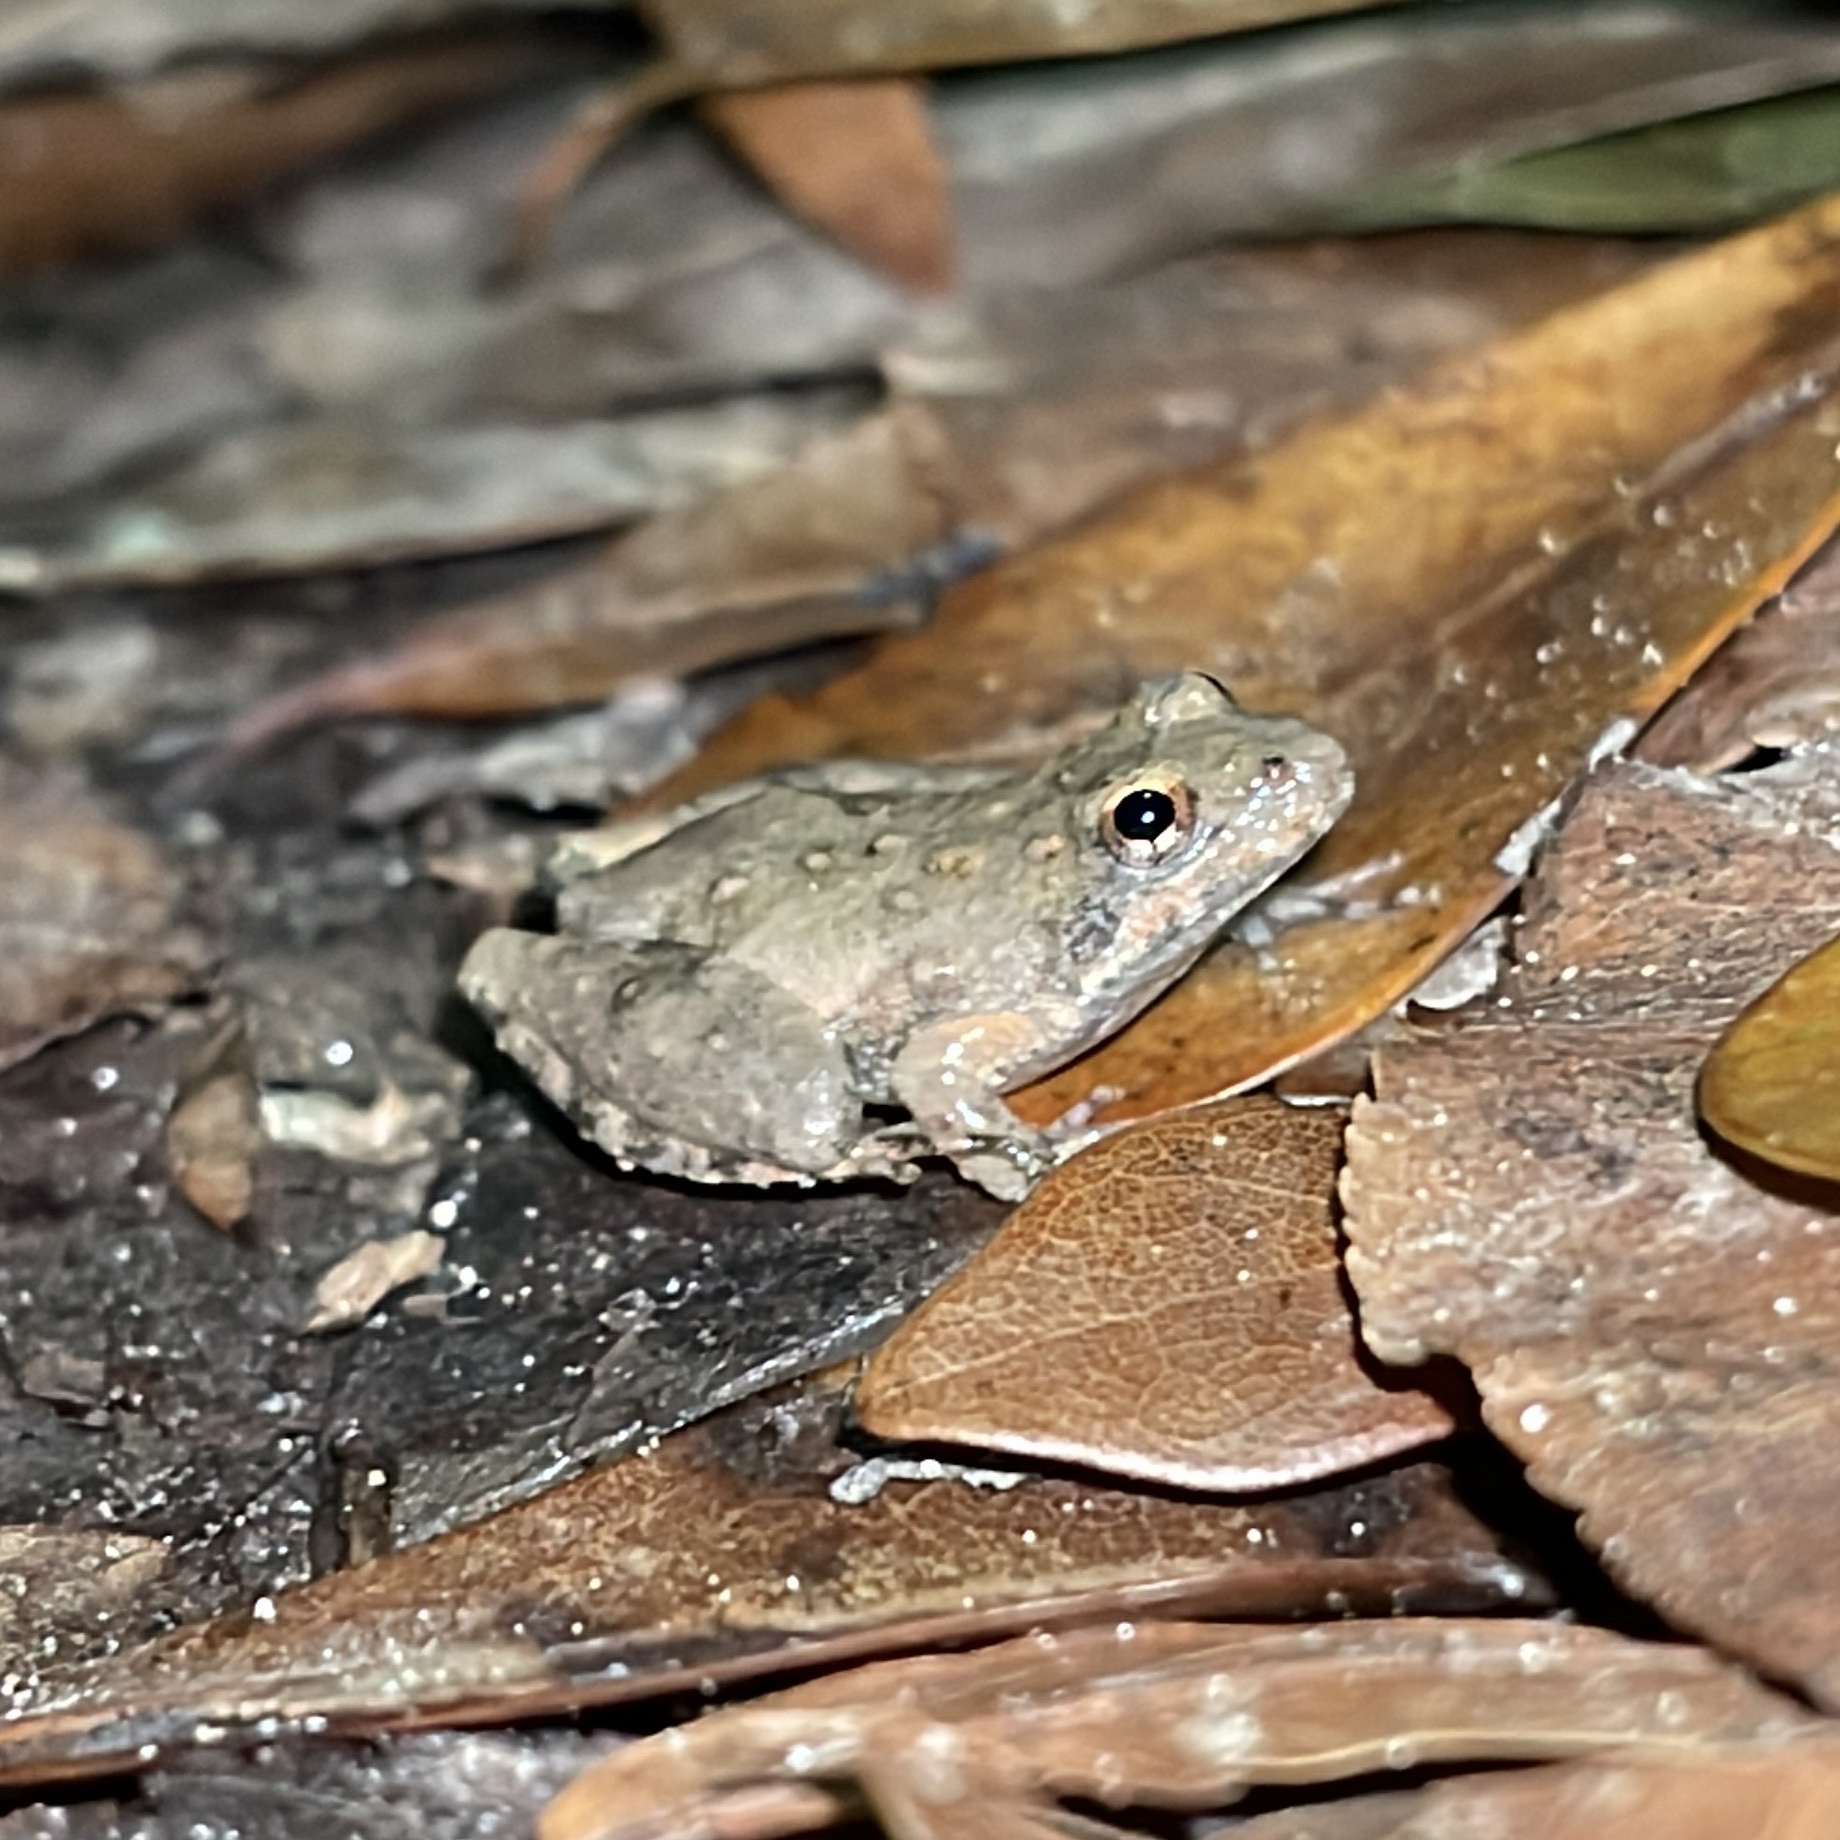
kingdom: Animalia
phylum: Chordata
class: Amphibia
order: Anura
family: Hylidae
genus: Acris
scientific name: Acris blanchardi
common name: Blanchard's cricket frog
